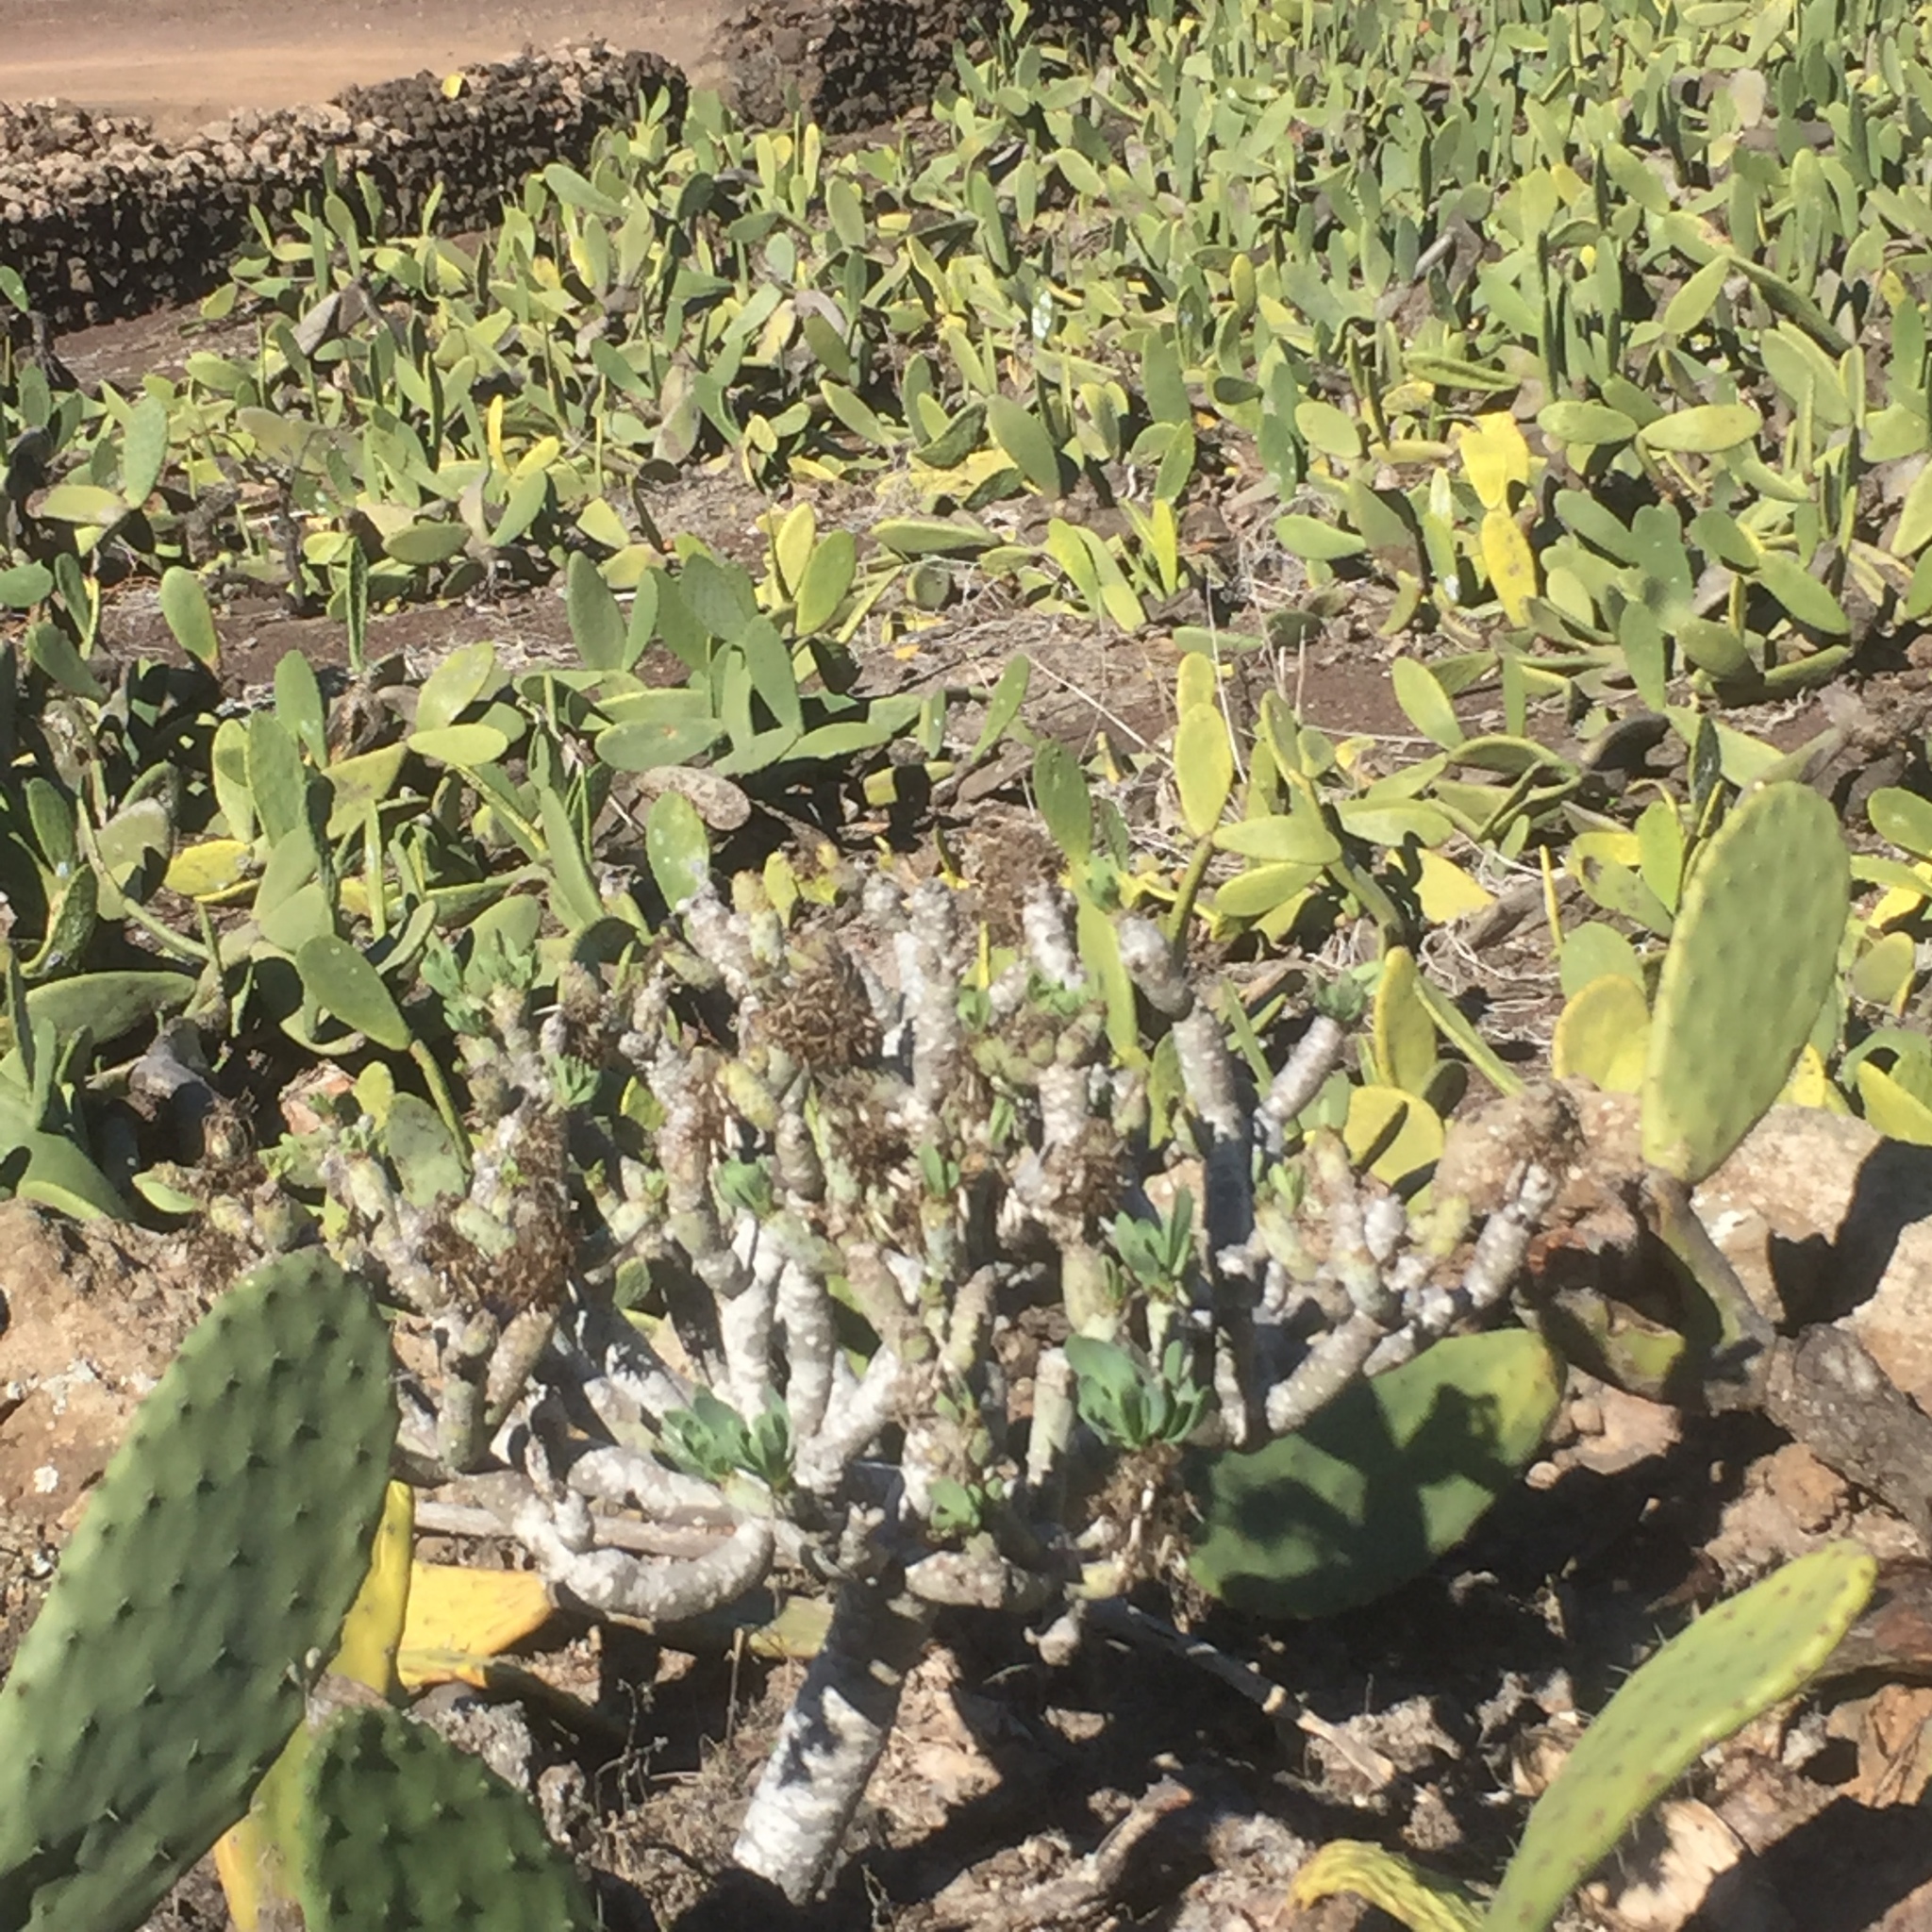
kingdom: Plantae
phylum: Tracheophyta
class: Magnoliopsida
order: Asterales
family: Asteraceae
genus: Kleinia
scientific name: Kleinia neriifolia
